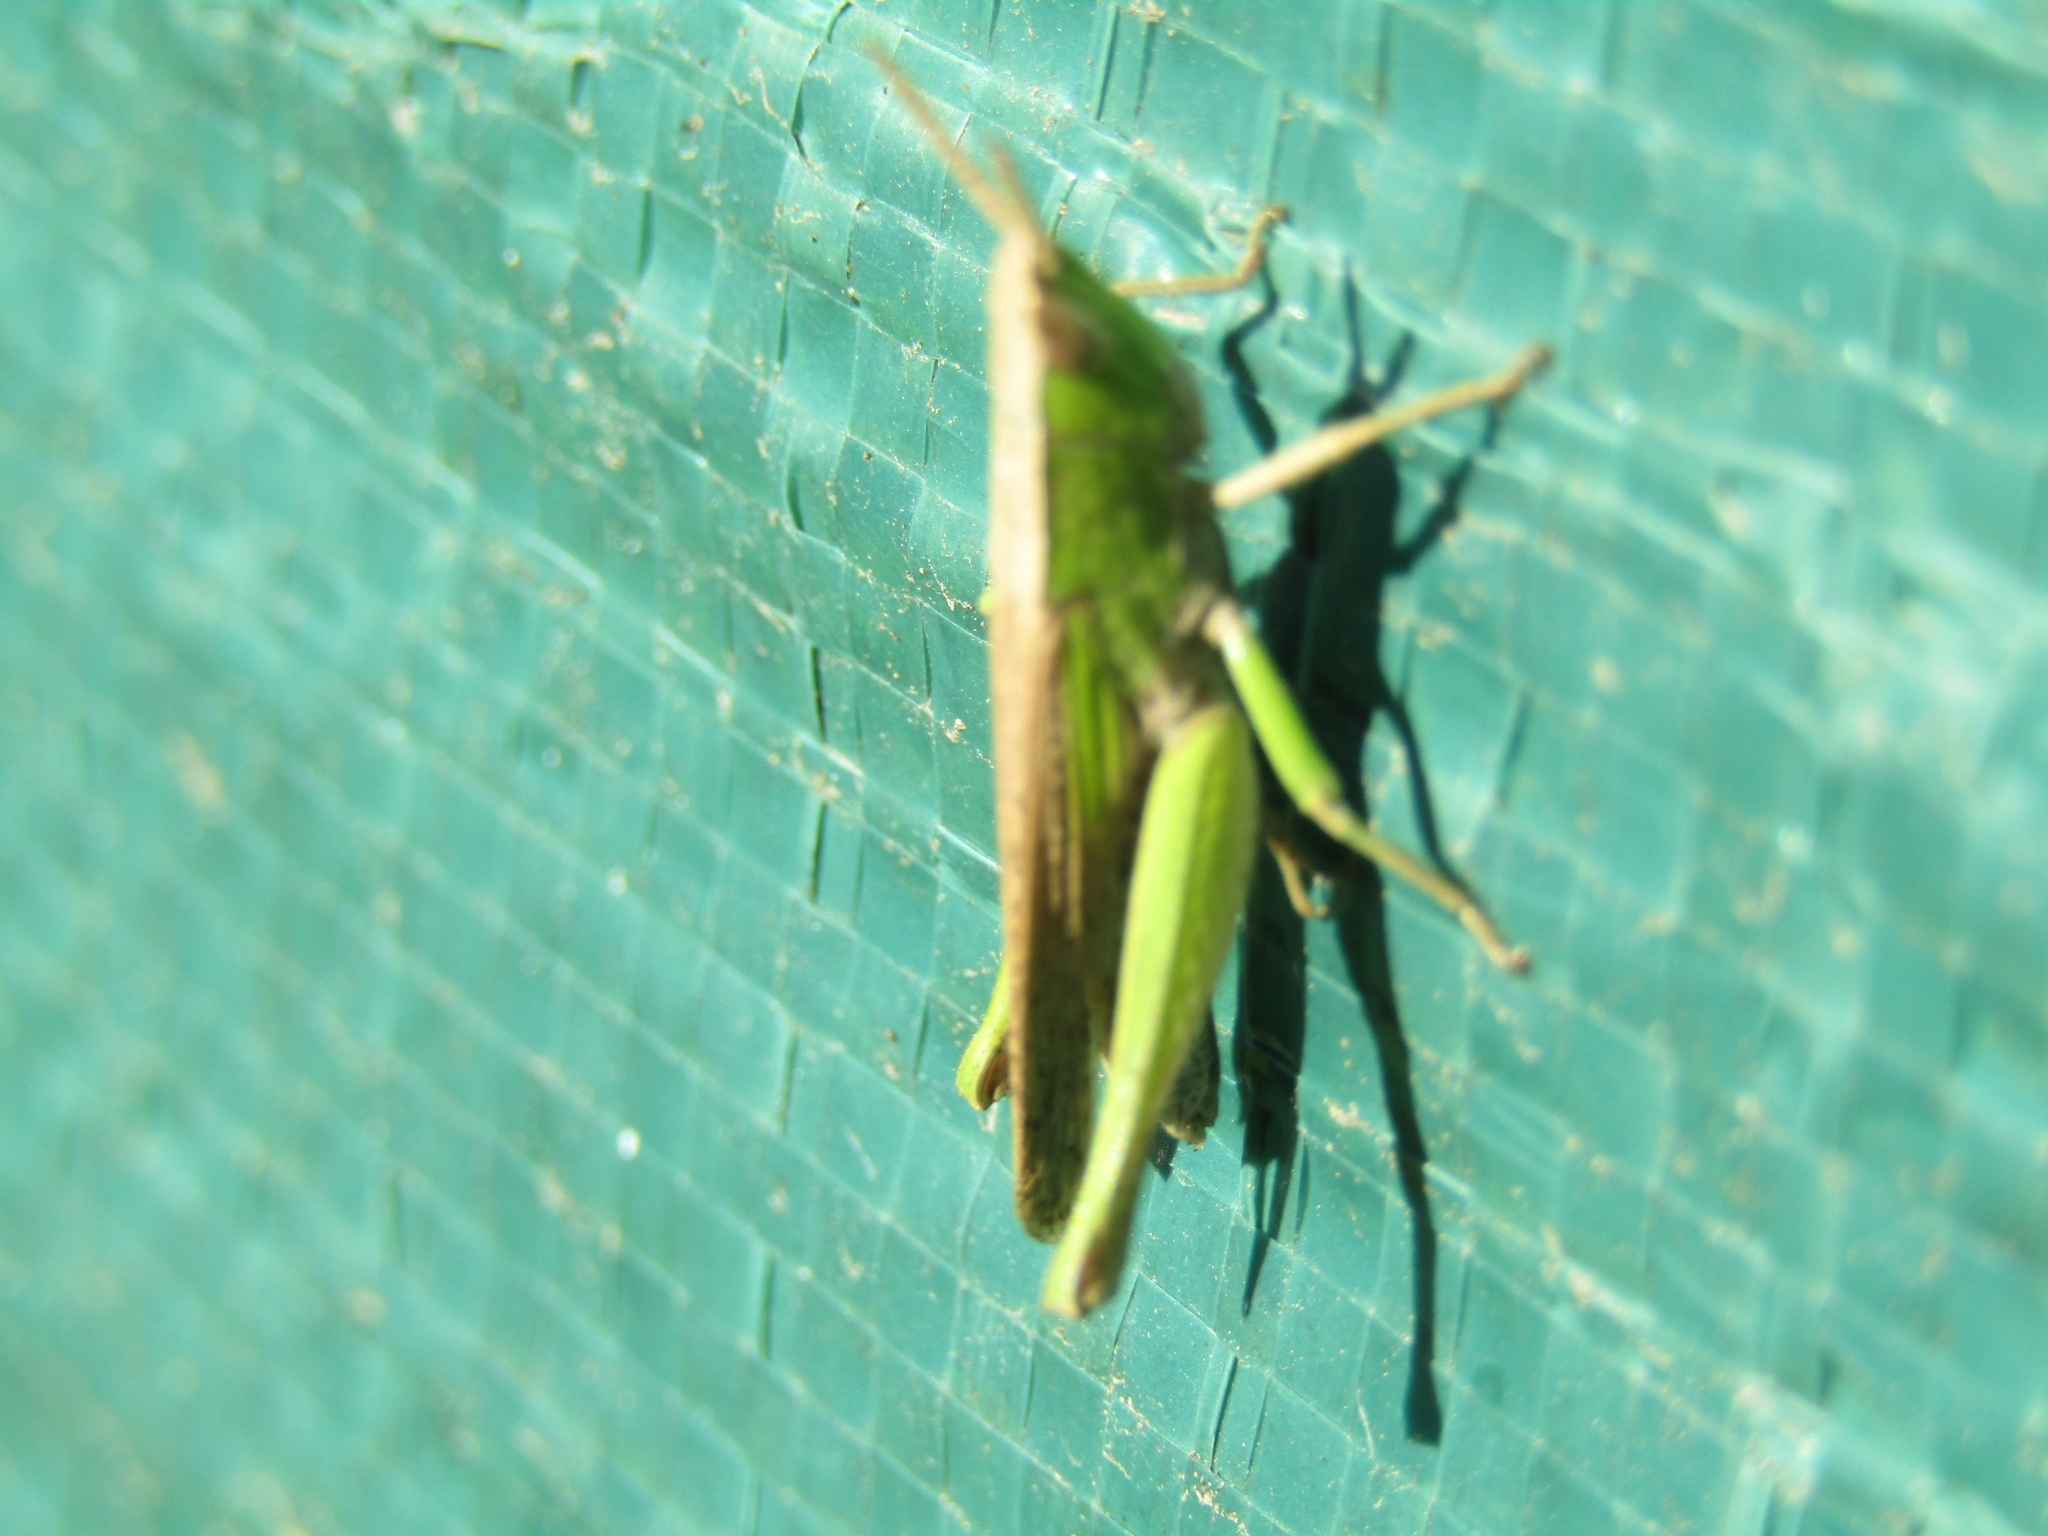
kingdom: Animalia
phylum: Arthropoda
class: Insecta
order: Orthoptera
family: Acrididae
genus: Laplatacris
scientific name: Laplatacris dispar
